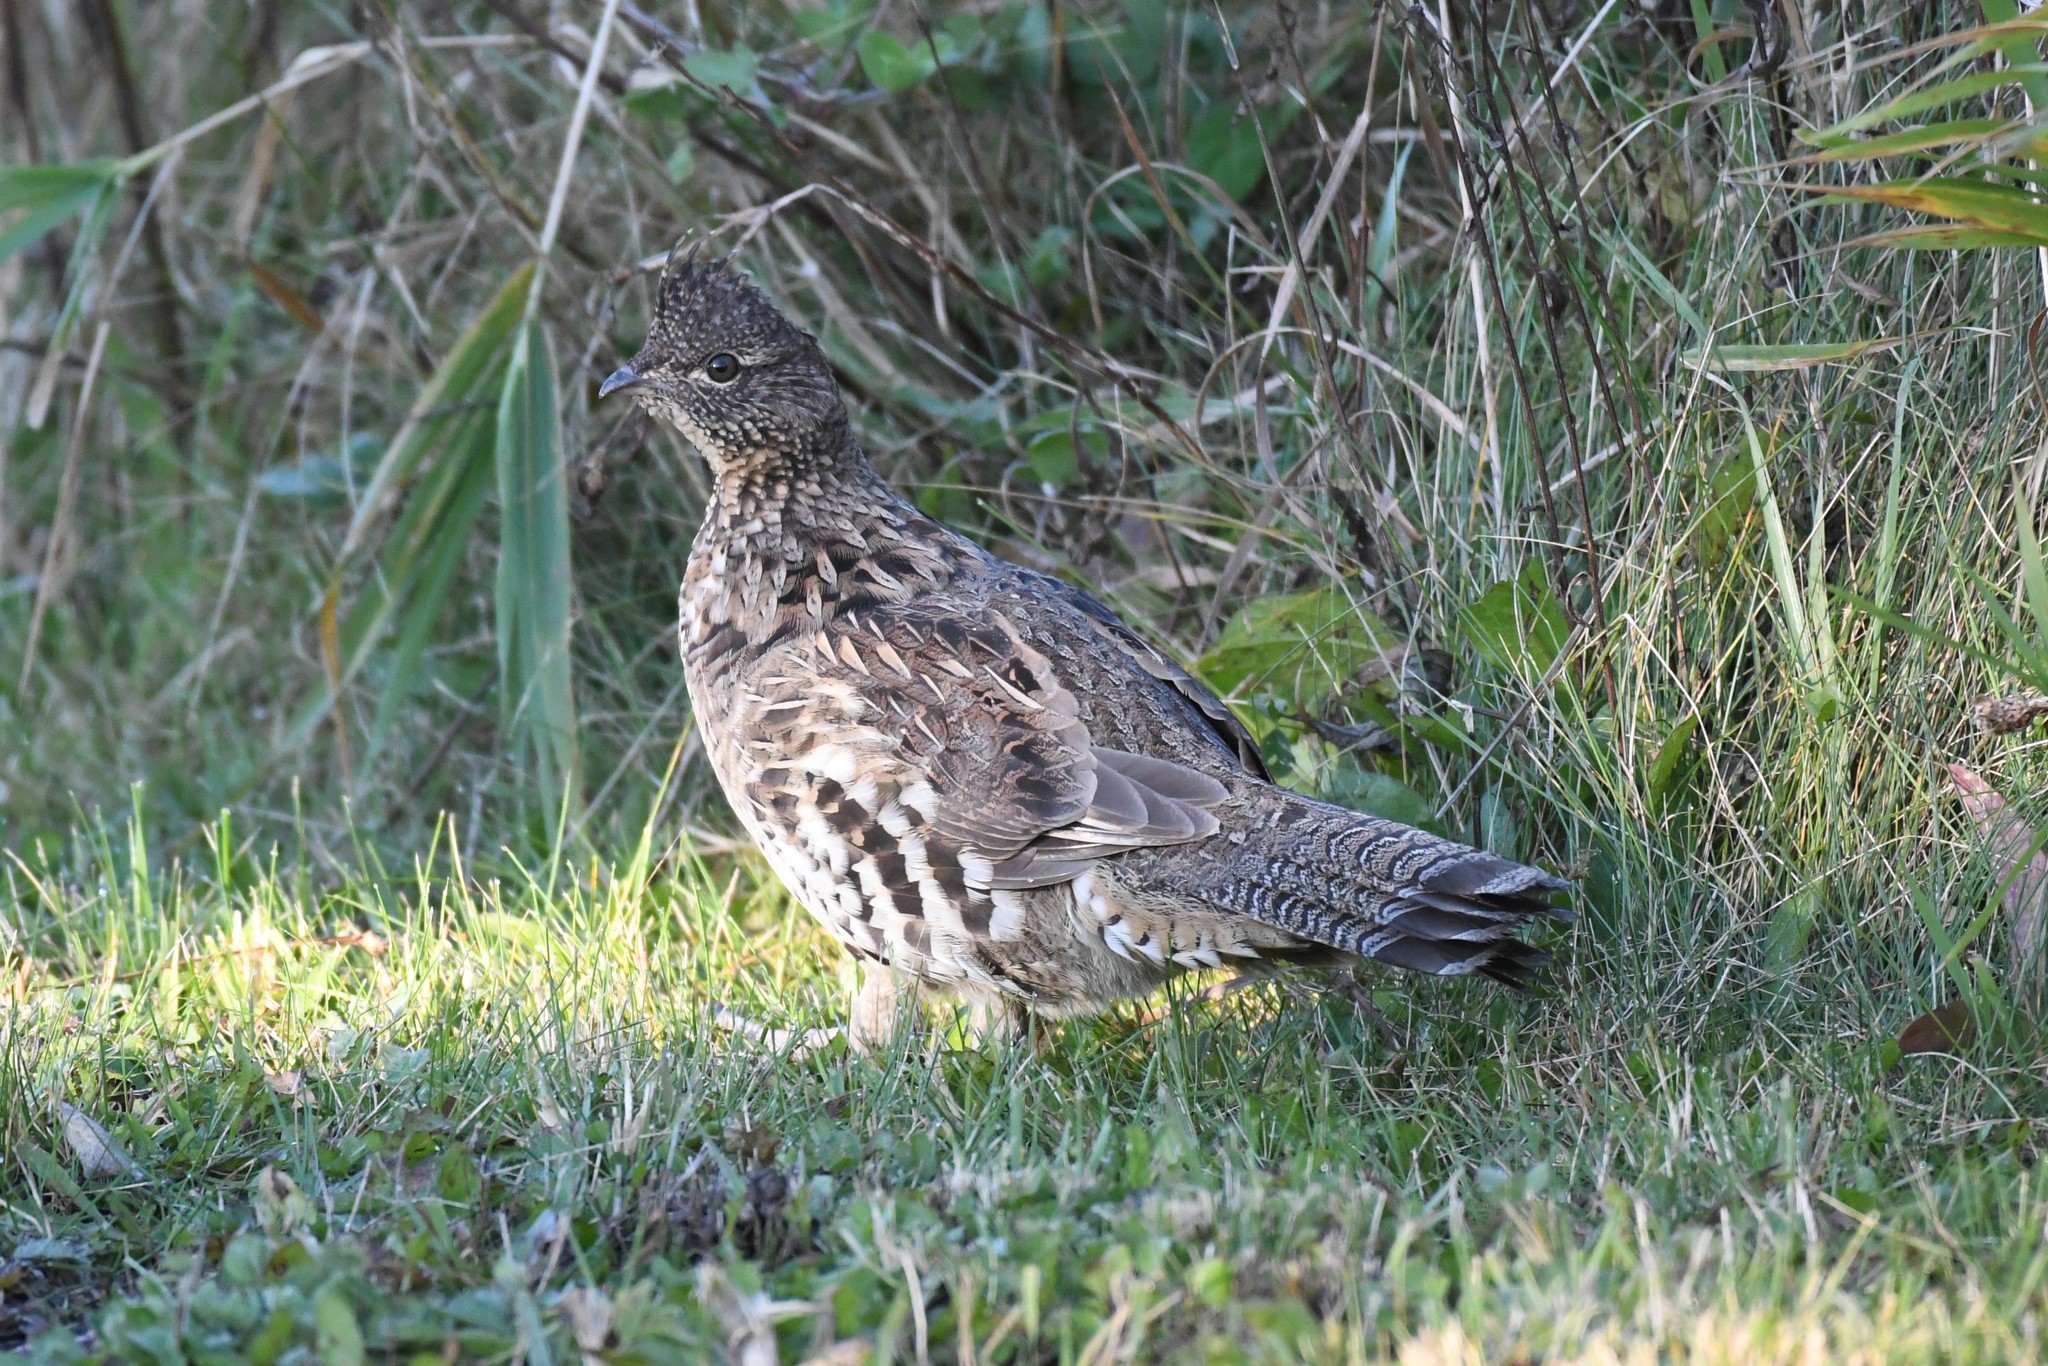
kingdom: Animalia
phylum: Chordata
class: Aves
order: Galliformes
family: Phasianidae
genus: Bonasa
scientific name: Bonasa umbellus
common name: Ruffed grouse
